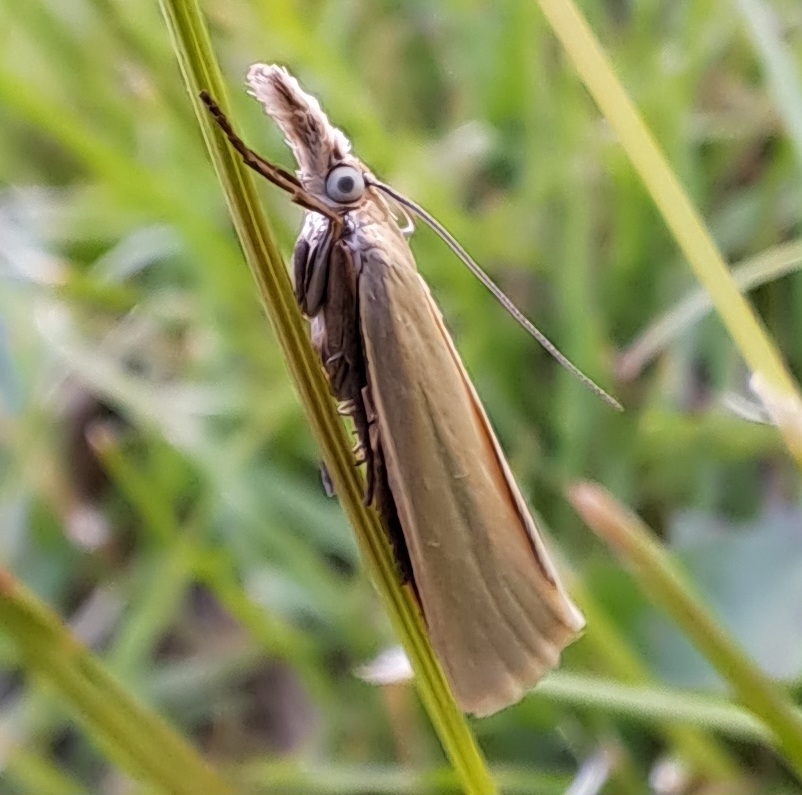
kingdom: Animalia
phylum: Arthropoda
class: Insecta
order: Lepidoptera
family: Crambidae
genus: Crambus
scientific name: Crambus perlellus
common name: Yellow satin veneer
